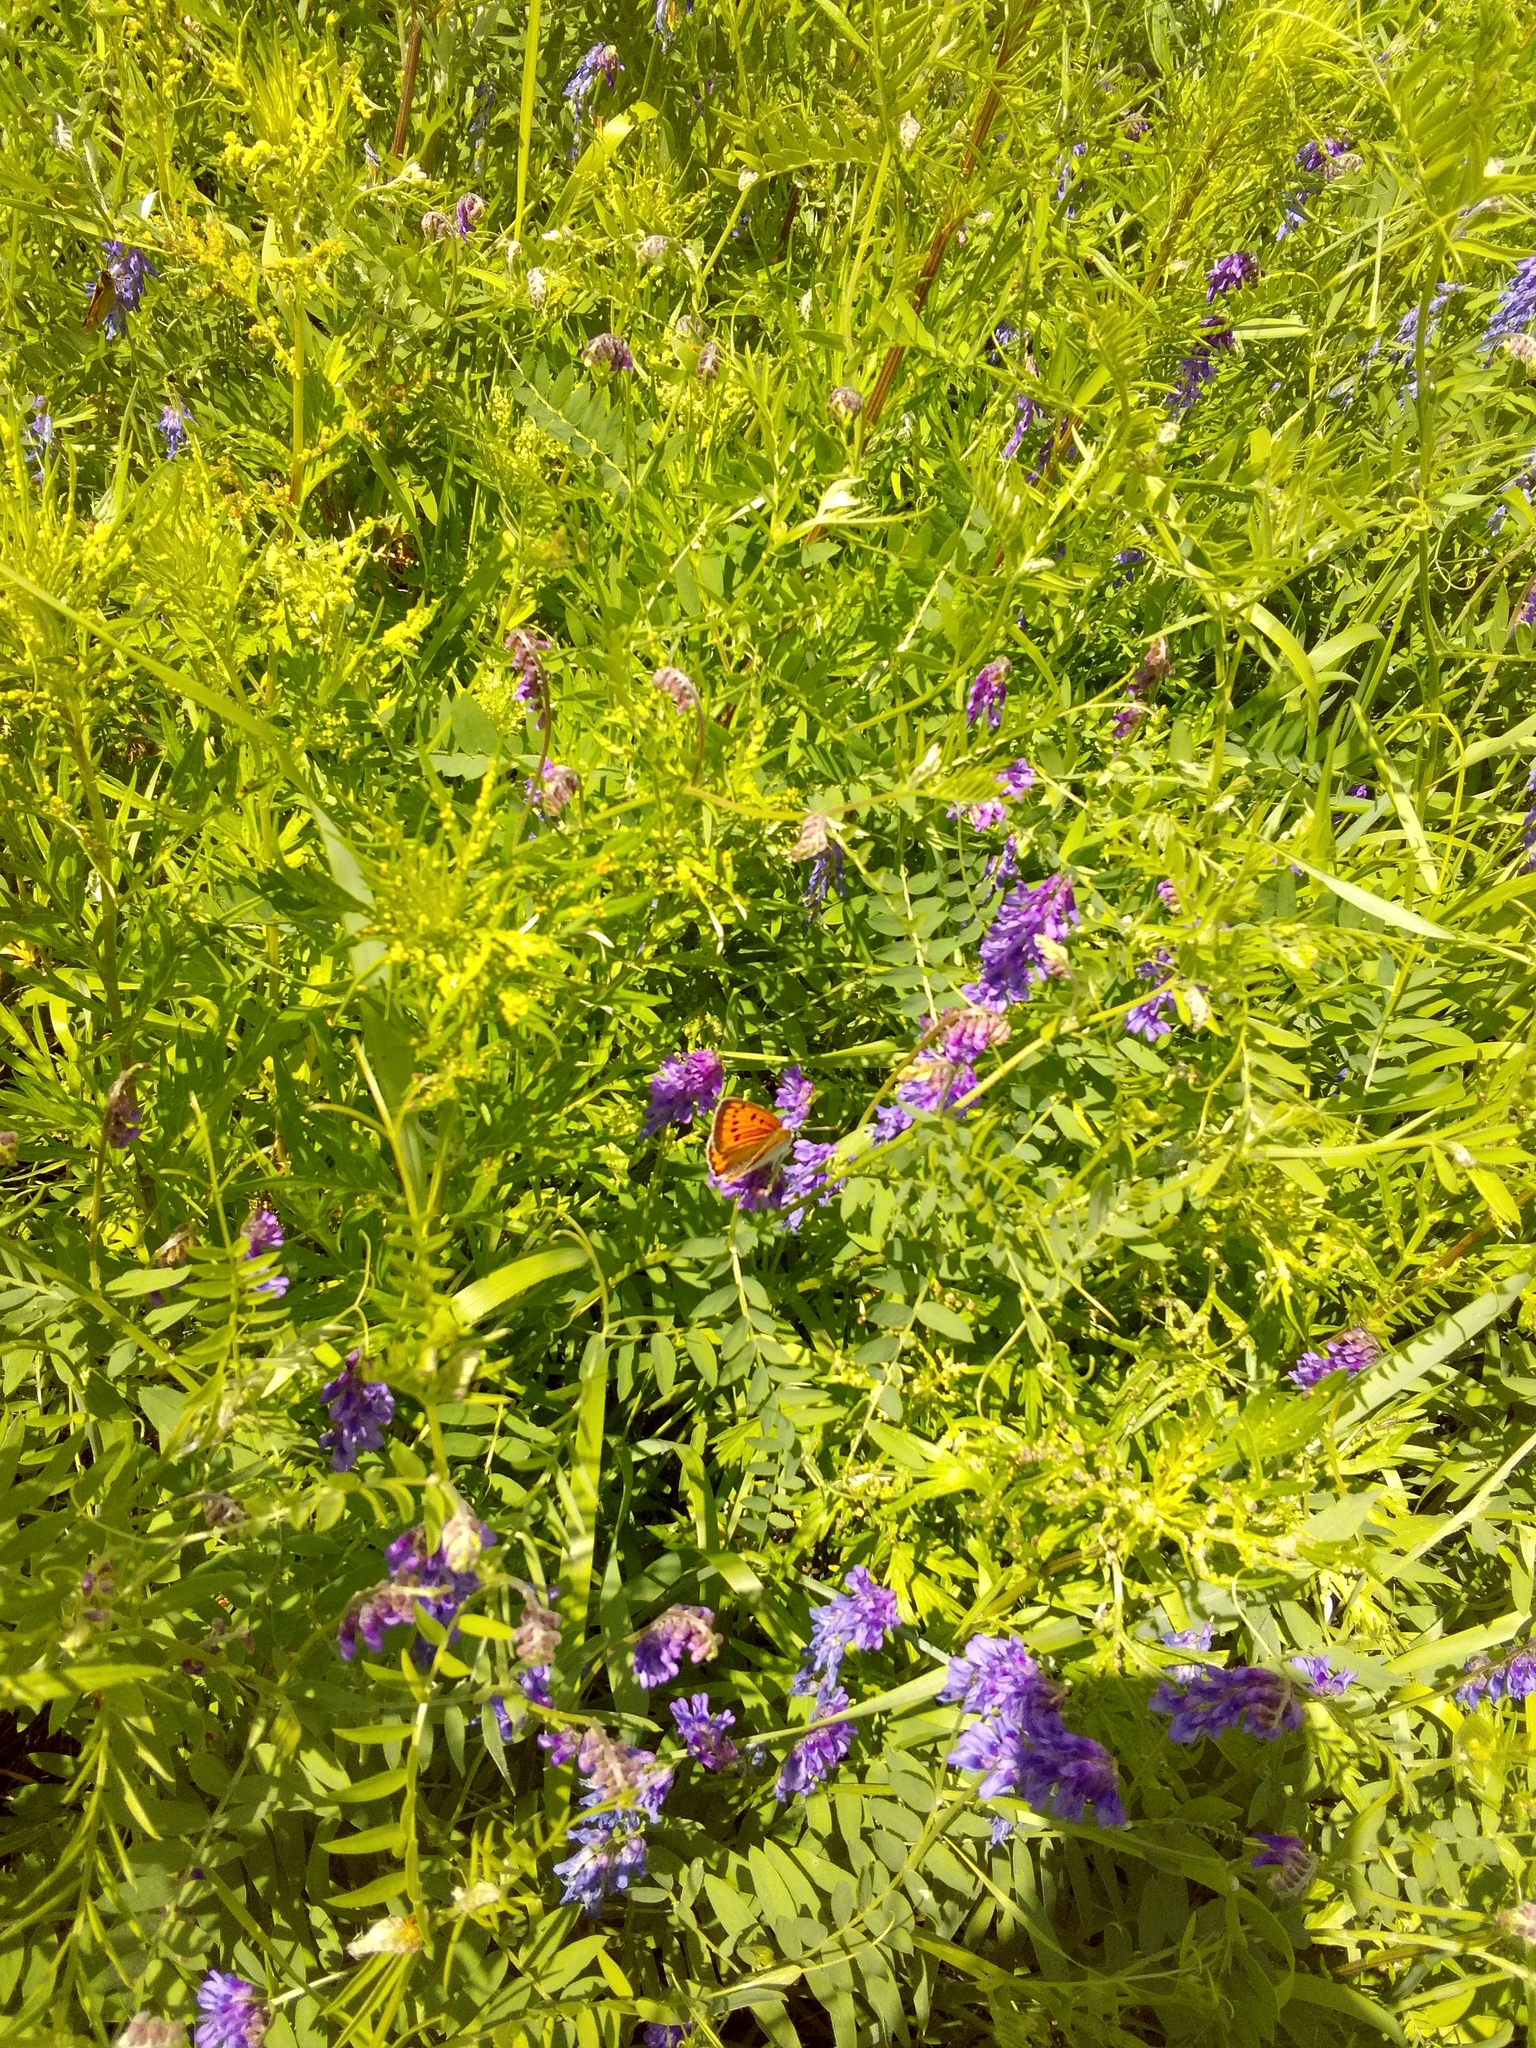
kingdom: Animalia
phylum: Arthropoda
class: Insecta
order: Lepidoptera
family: Lycaenidae
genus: Lycaena
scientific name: Lycaena dispar
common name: Large copper
